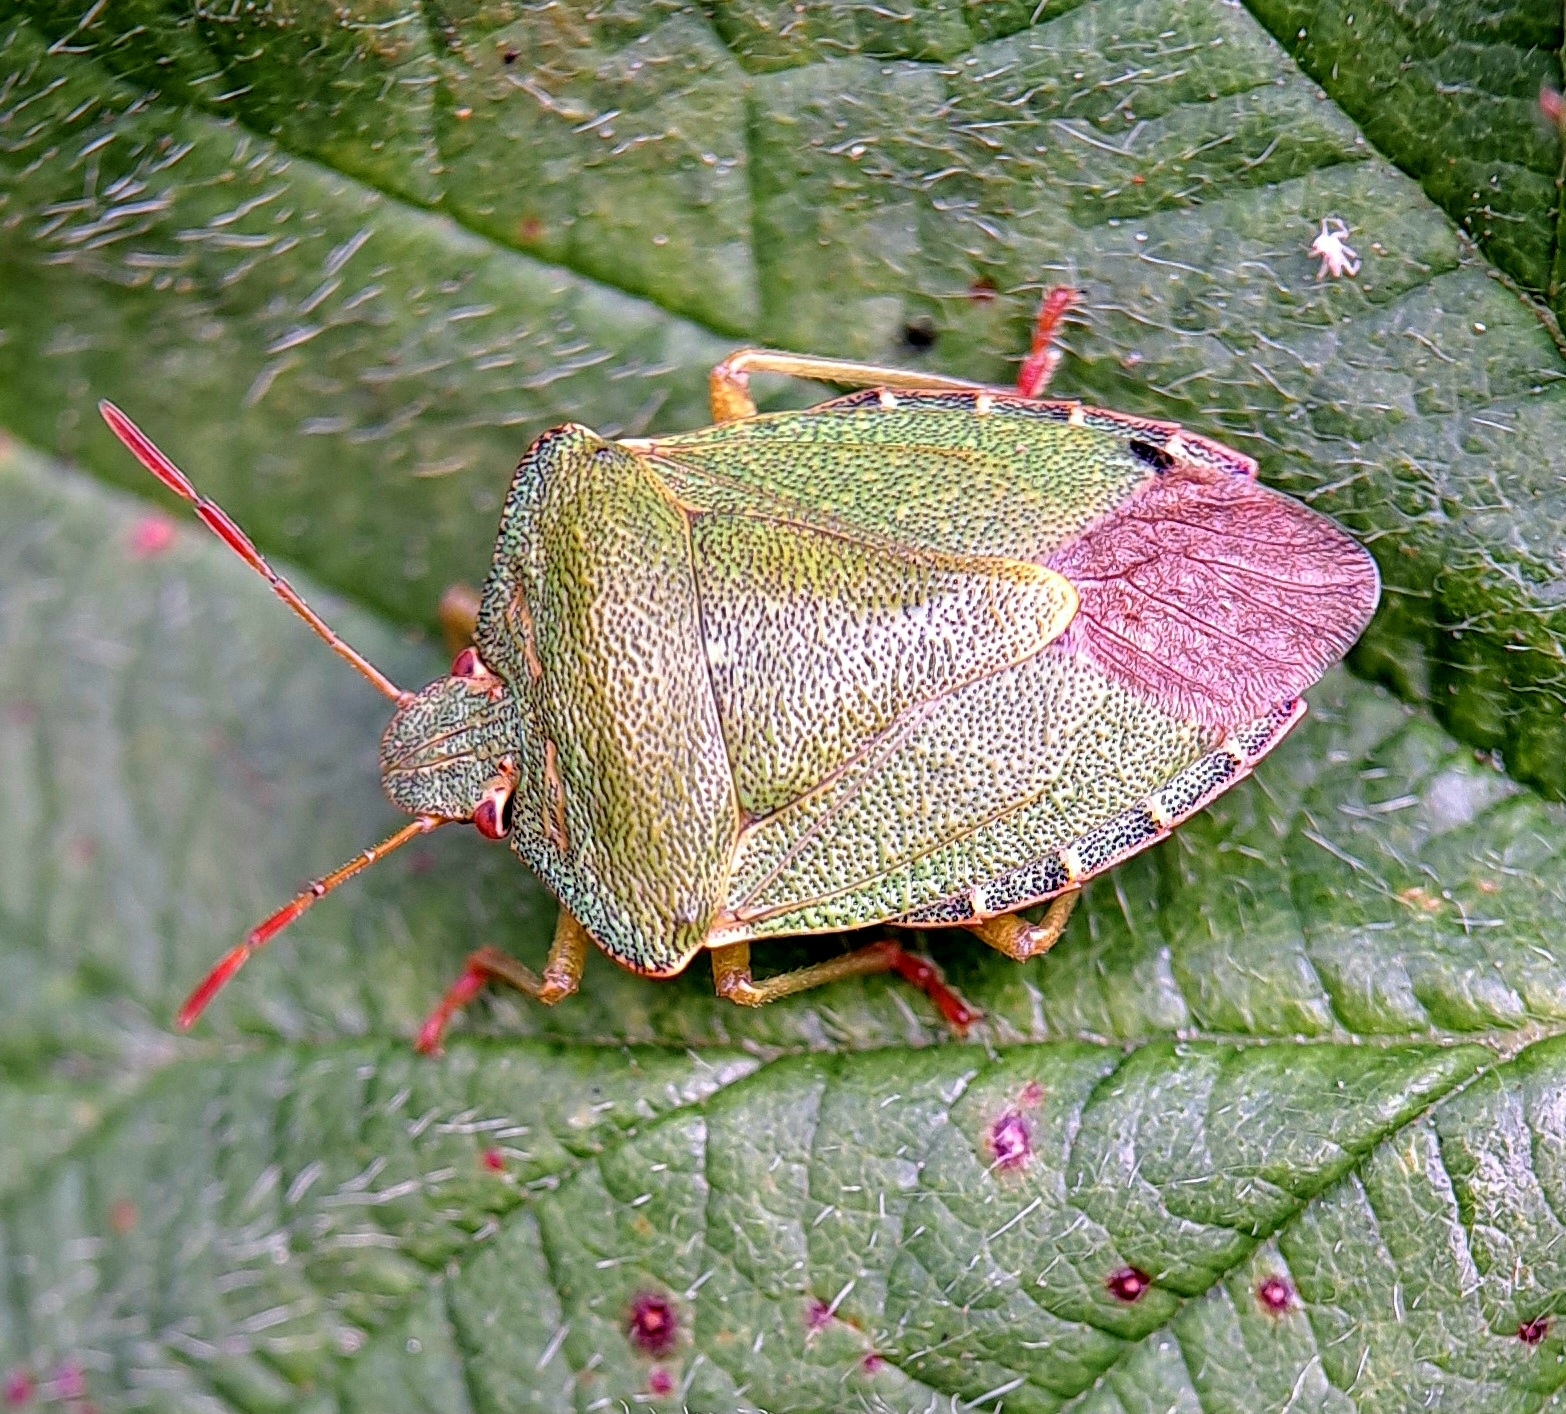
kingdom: Animalia
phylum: Arthropoda
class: Insecta
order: Hemiptera
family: Pentatomidae
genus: Palomena
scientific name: Palomena prasina
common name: Green shieldbug
